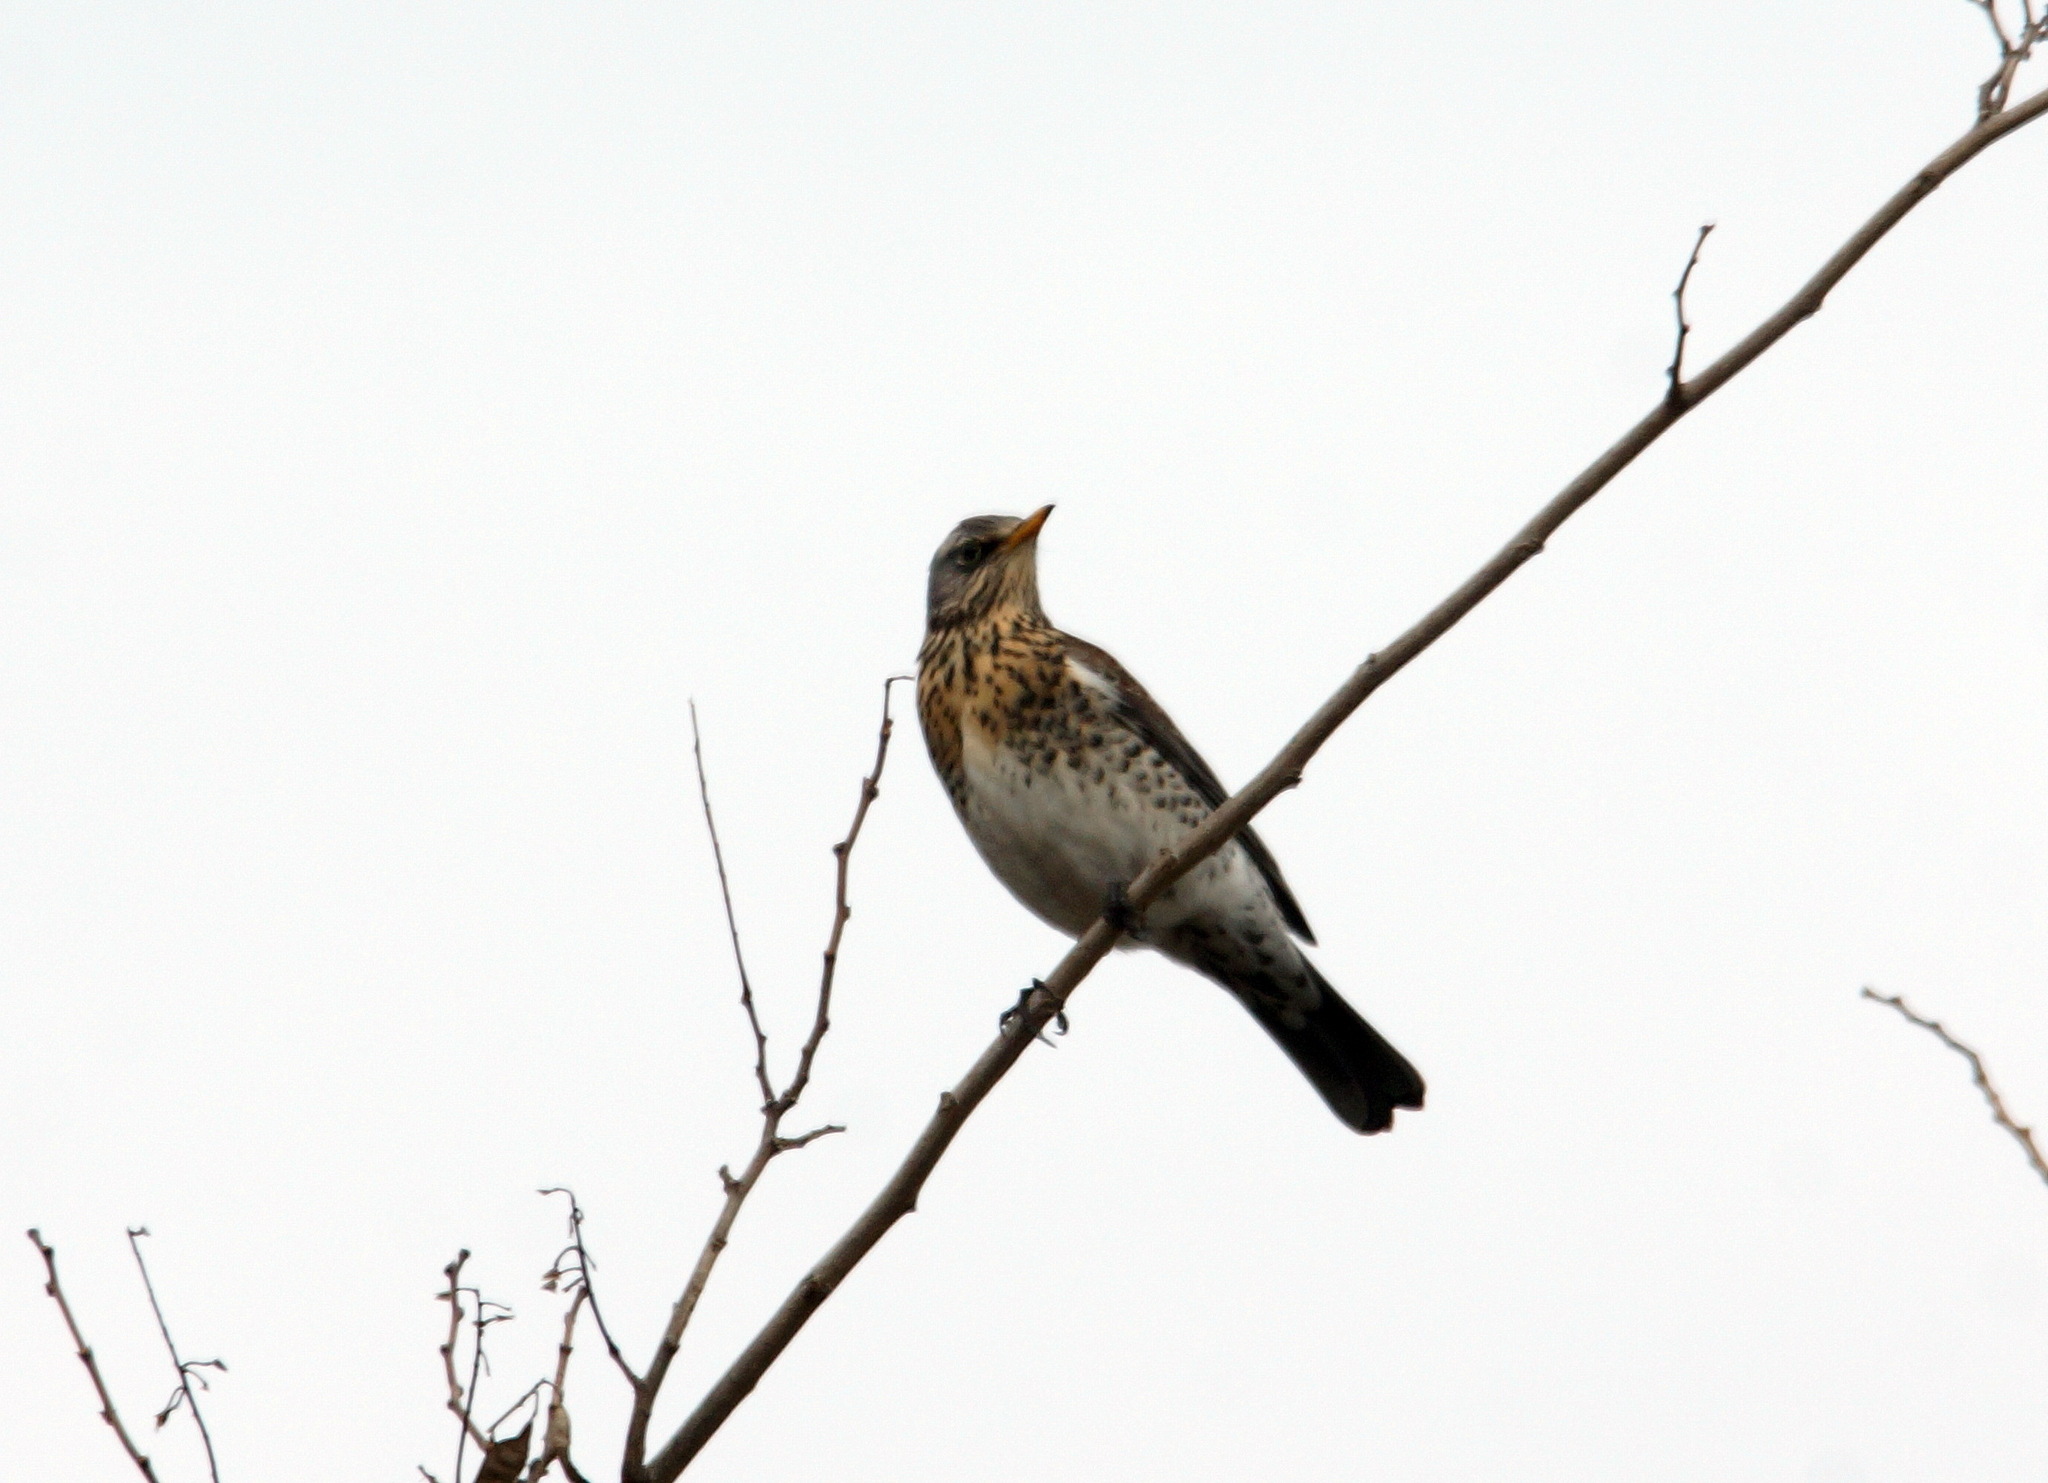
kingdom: Animalia
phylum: Chordata
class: Aves
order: Passeriformes
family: Turdidae
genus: Turdus
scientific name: Turdus pilaris
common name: Fieldfare
